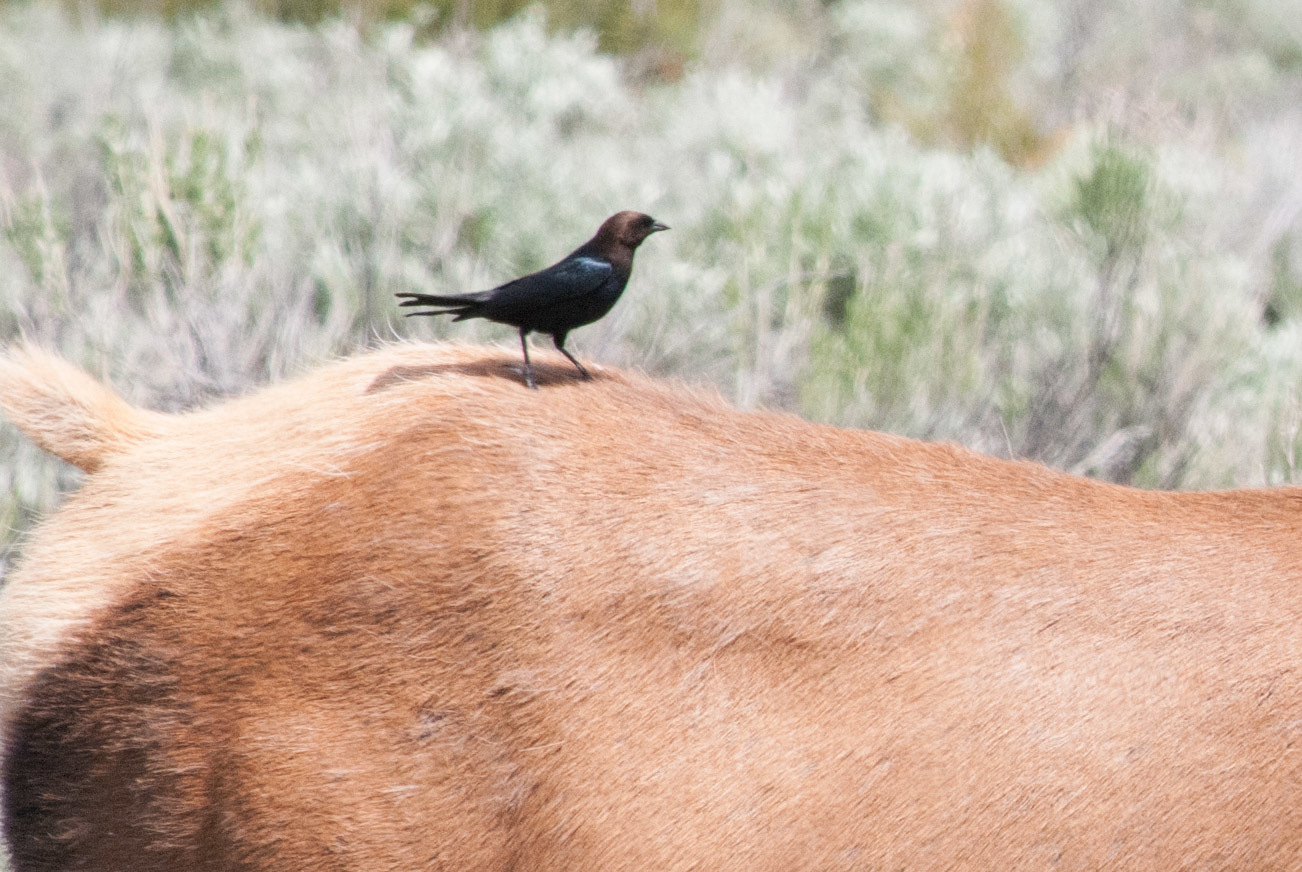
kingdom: Animalia
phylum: Chordata
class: Aves
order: Passeriformes
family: Icteridae
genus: Molothrus
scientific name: Molothrus ater
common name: Brown-headed cowbird
